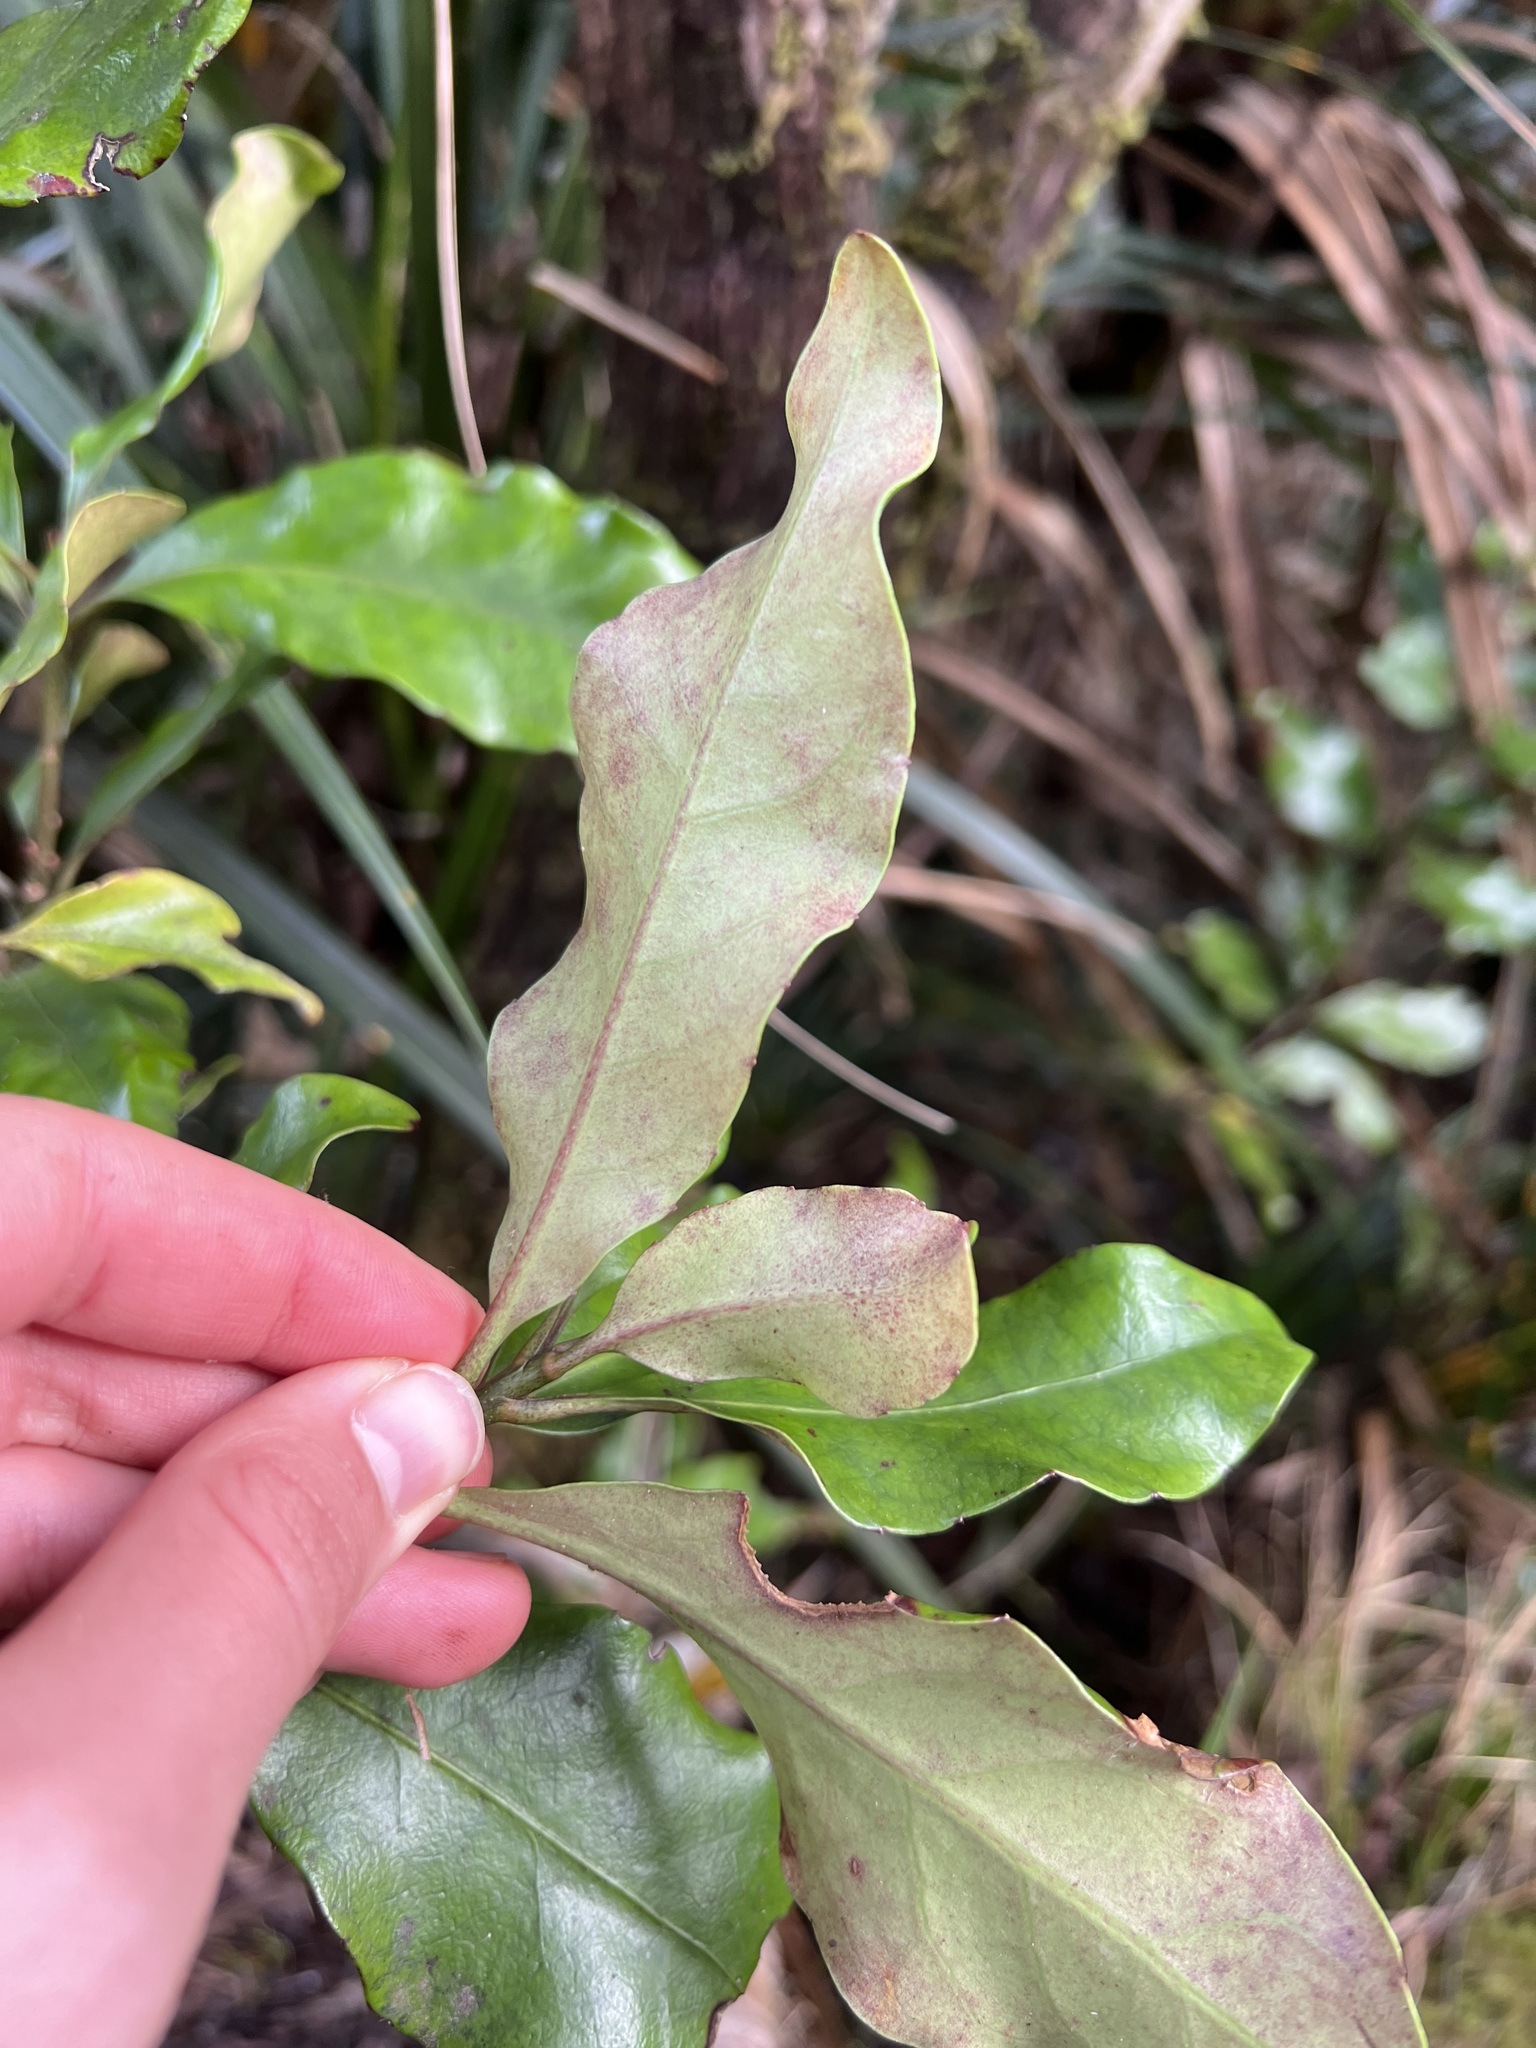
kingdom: Plantae
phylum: Tracheophyta
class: Magnoliopsida
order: Asterales
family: Alseuosmiaceae
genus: Alseuosmia
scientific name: Alseuosmia macrophylla
